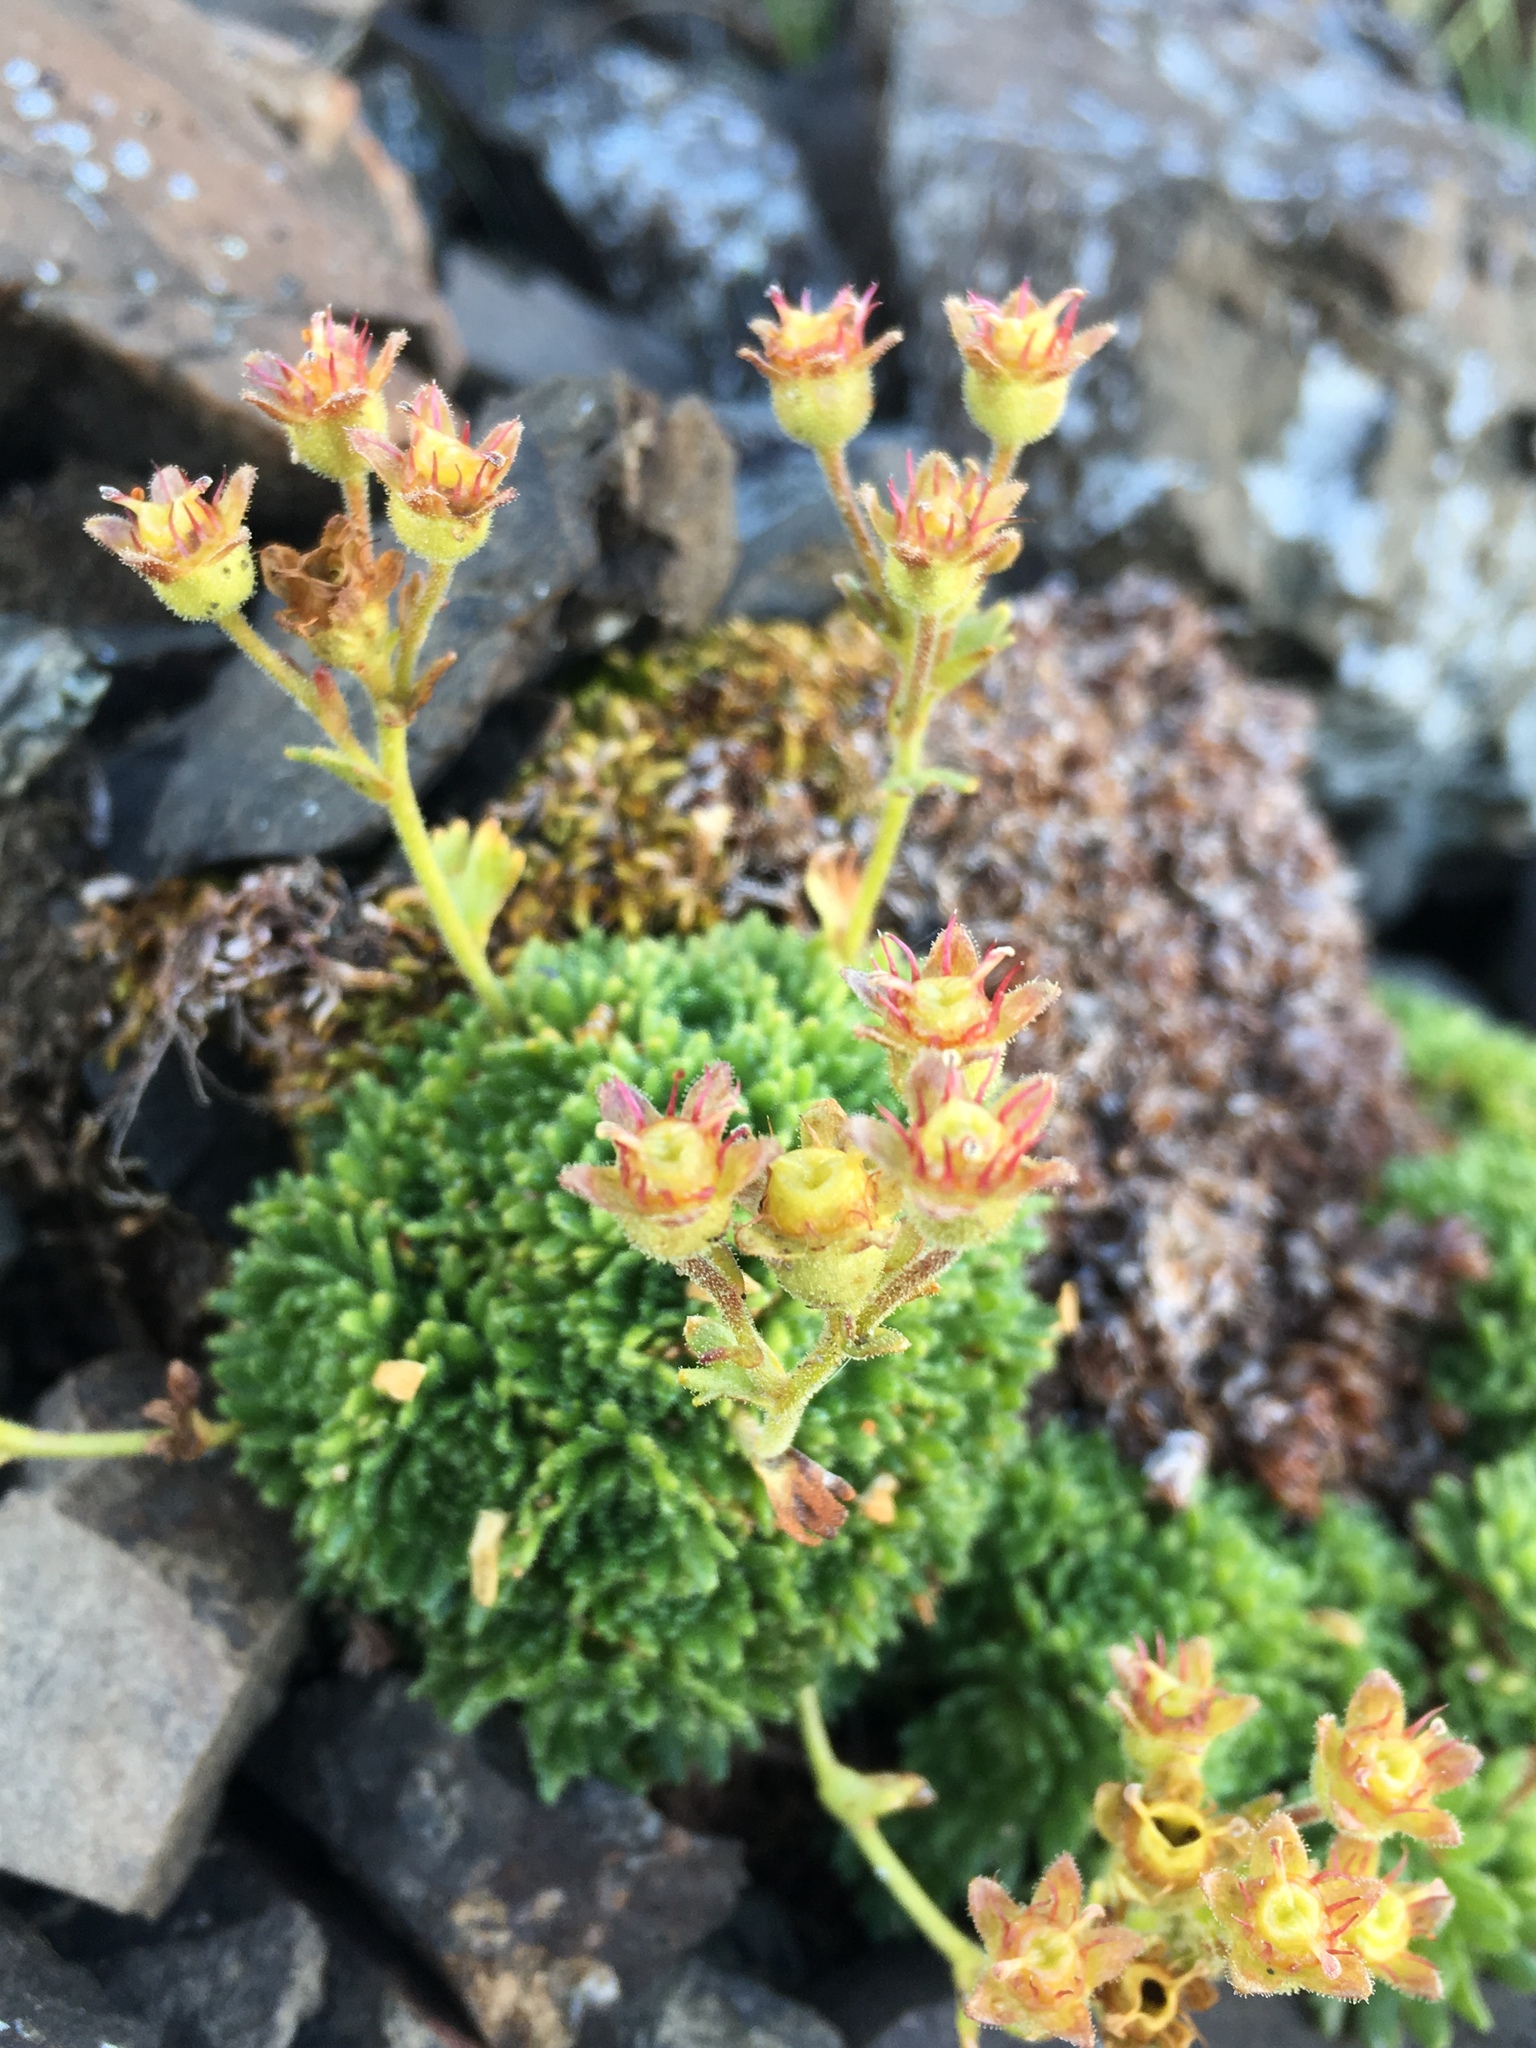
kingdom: Plantae
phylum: Tracheophyta
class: Magnoliopsida
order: Saxifragales
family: Saxifragaceae
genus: Saxifraga
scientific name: Saxifraga cespitosa
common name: Tufted saxifrage
